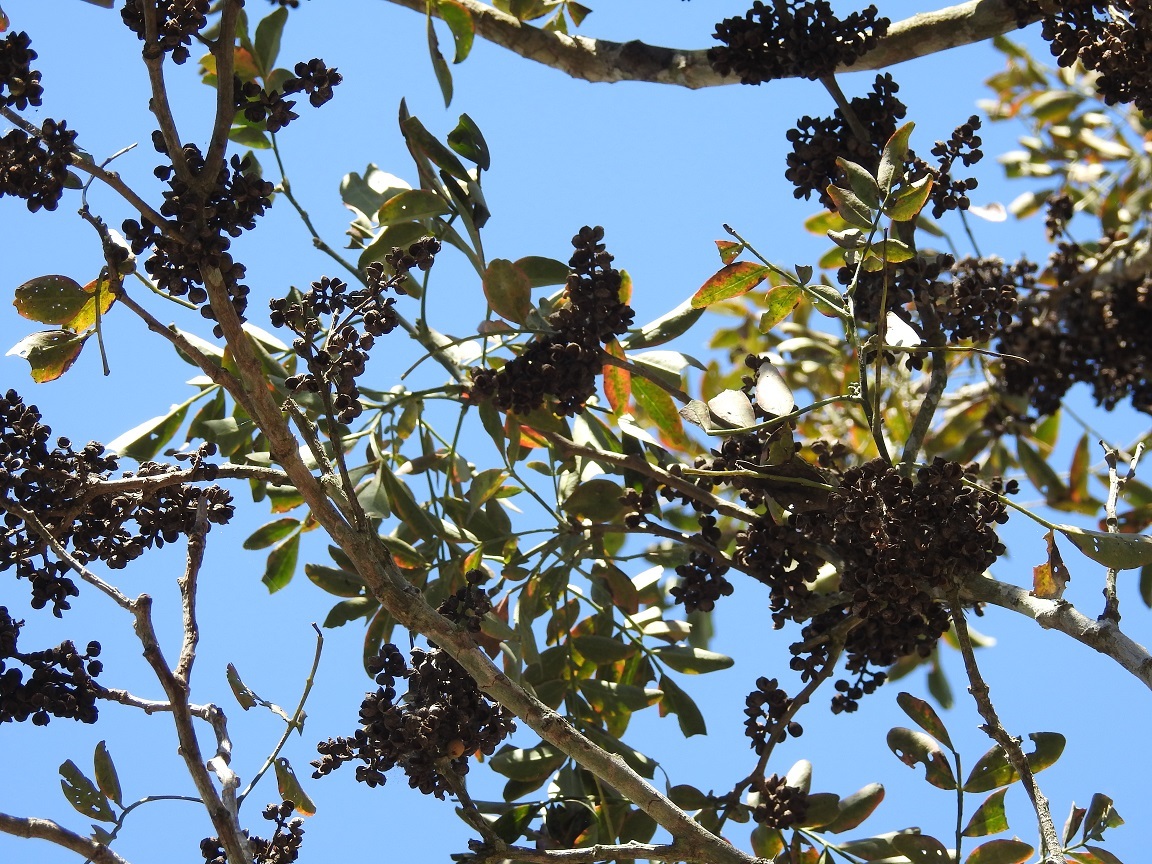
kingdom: Plantae
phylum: Tracheophyta
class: Magnoliopsida
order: Sapindales
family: Rutaceae
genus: Zanthoxylum
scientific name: Zanthoxylum quassiifolium
